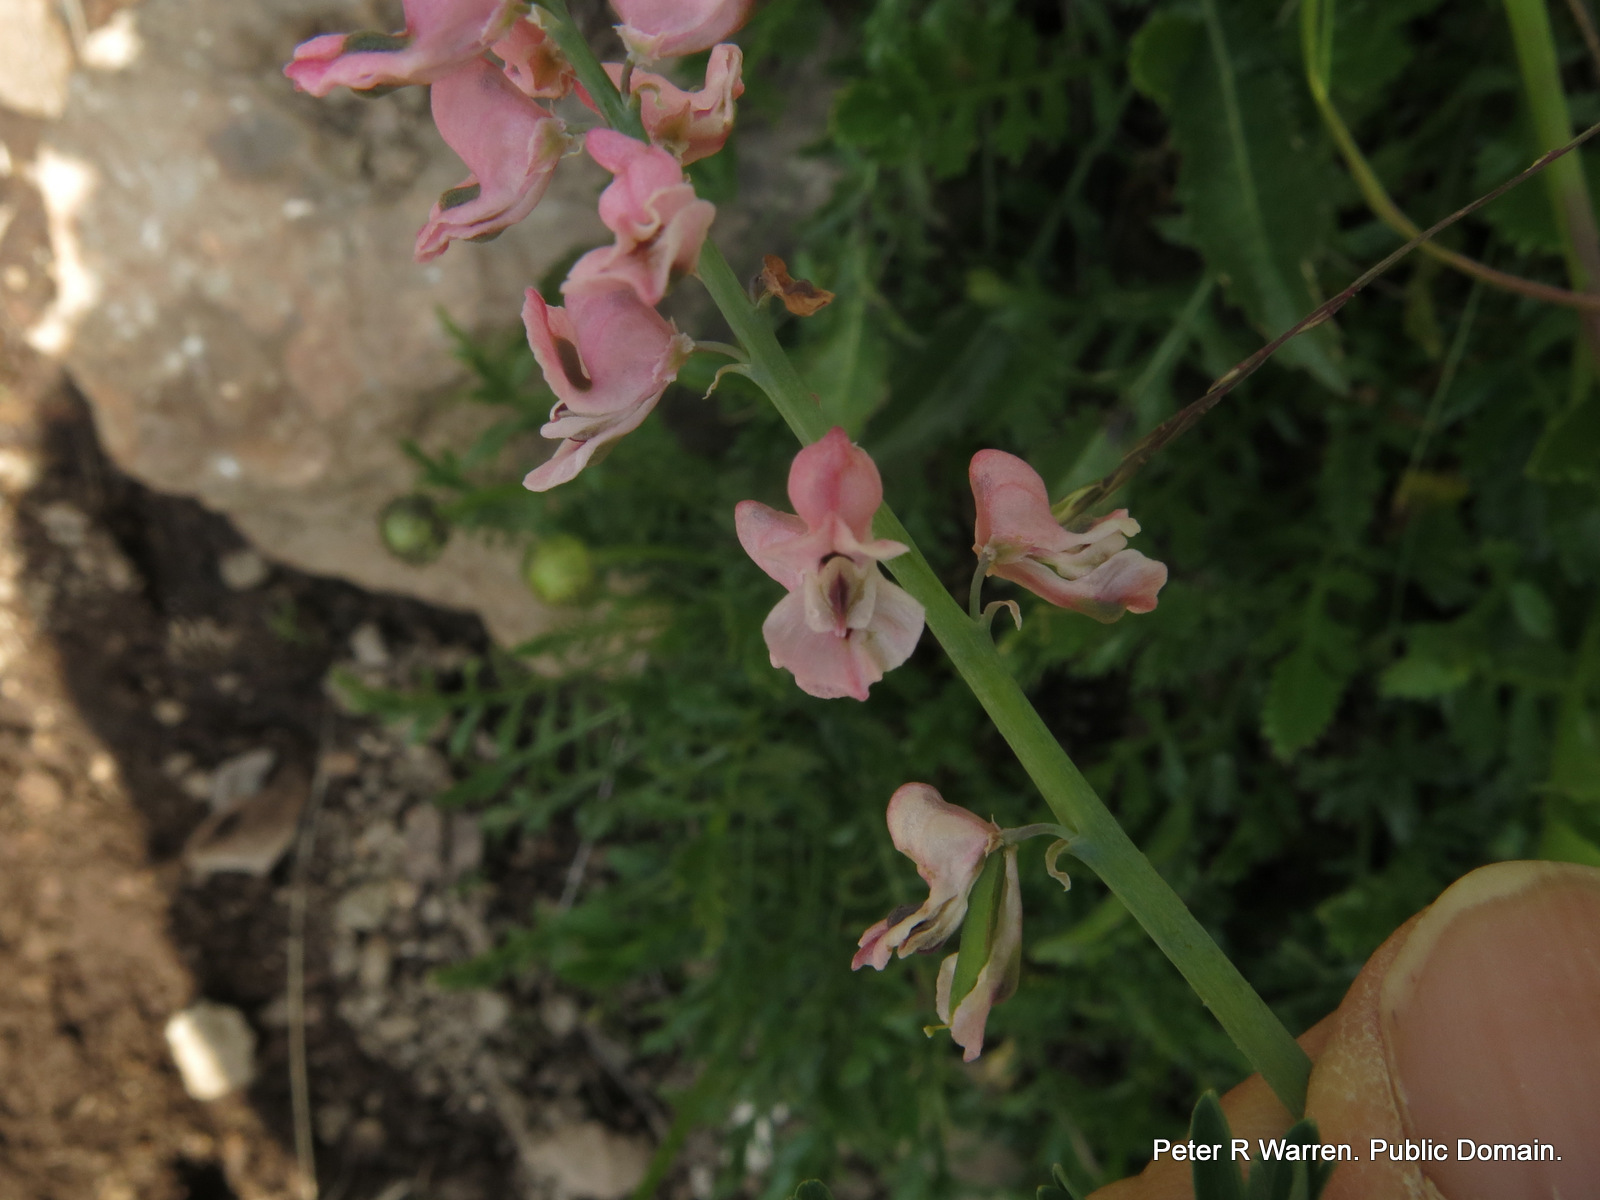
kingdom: Plantae
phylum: Tracheophyta
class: Magnoliopsida
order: Ranunculales
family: Papaveraceae
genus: Cysticapnos
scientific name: Cysticapnos pruinosa
